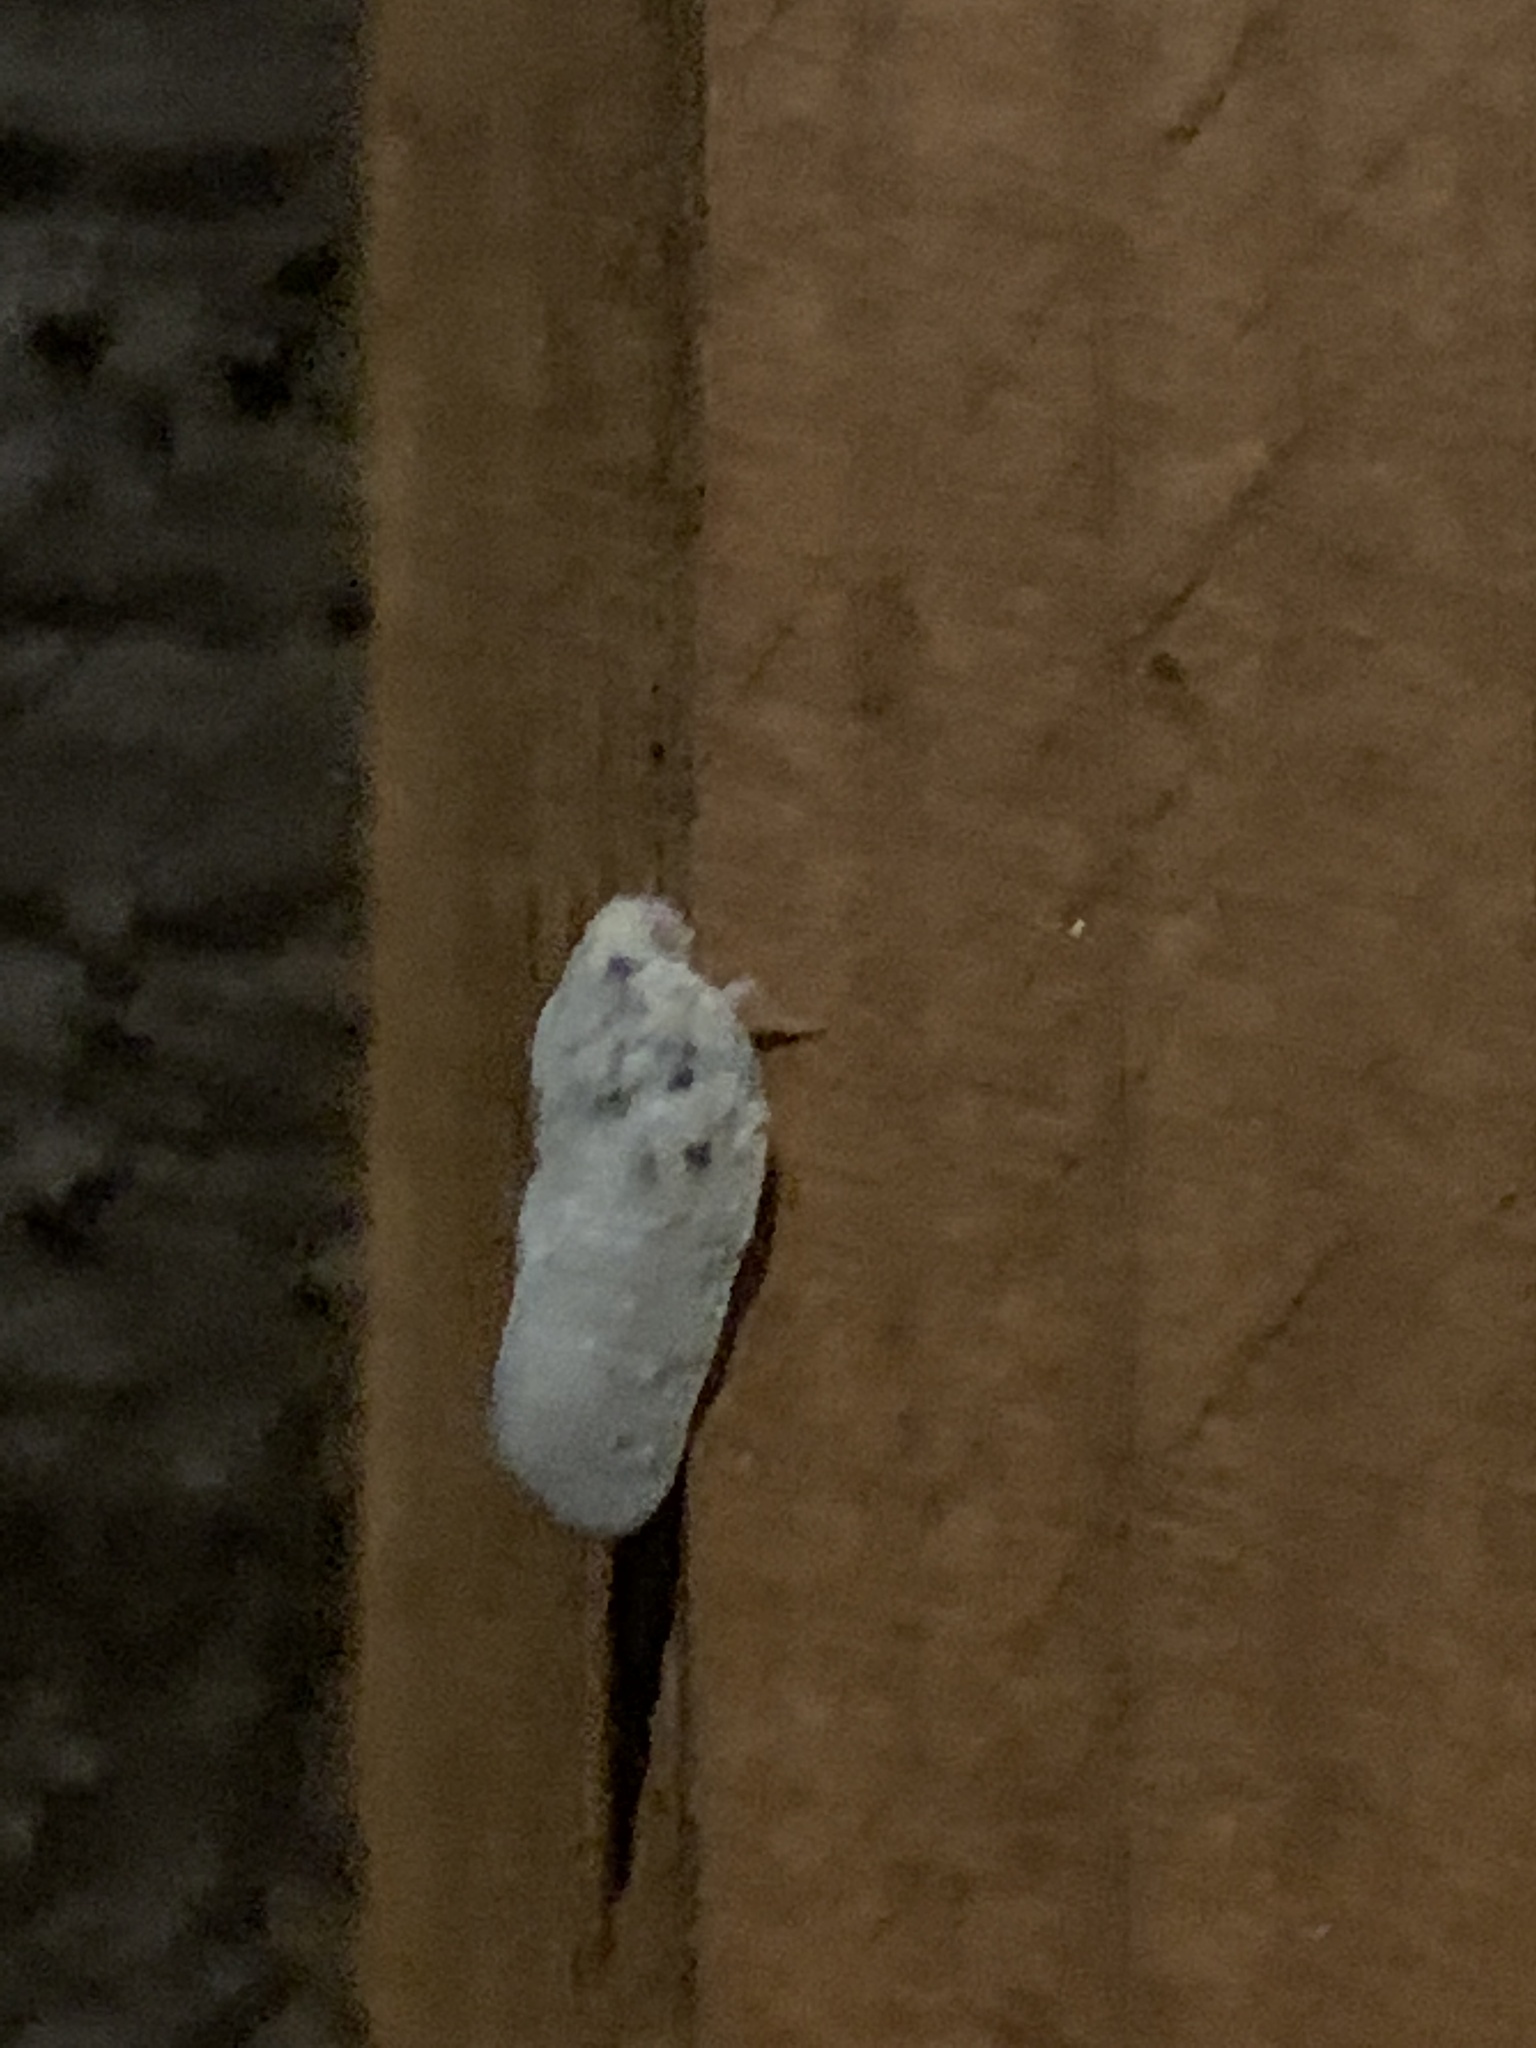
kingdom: Animalia
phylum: Arthropoda
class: Insecta
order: Hemiptera
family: Flatidae
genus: Metcalfa
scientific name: Metcalfa pruinosa
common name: Citrus flatid planthopper
